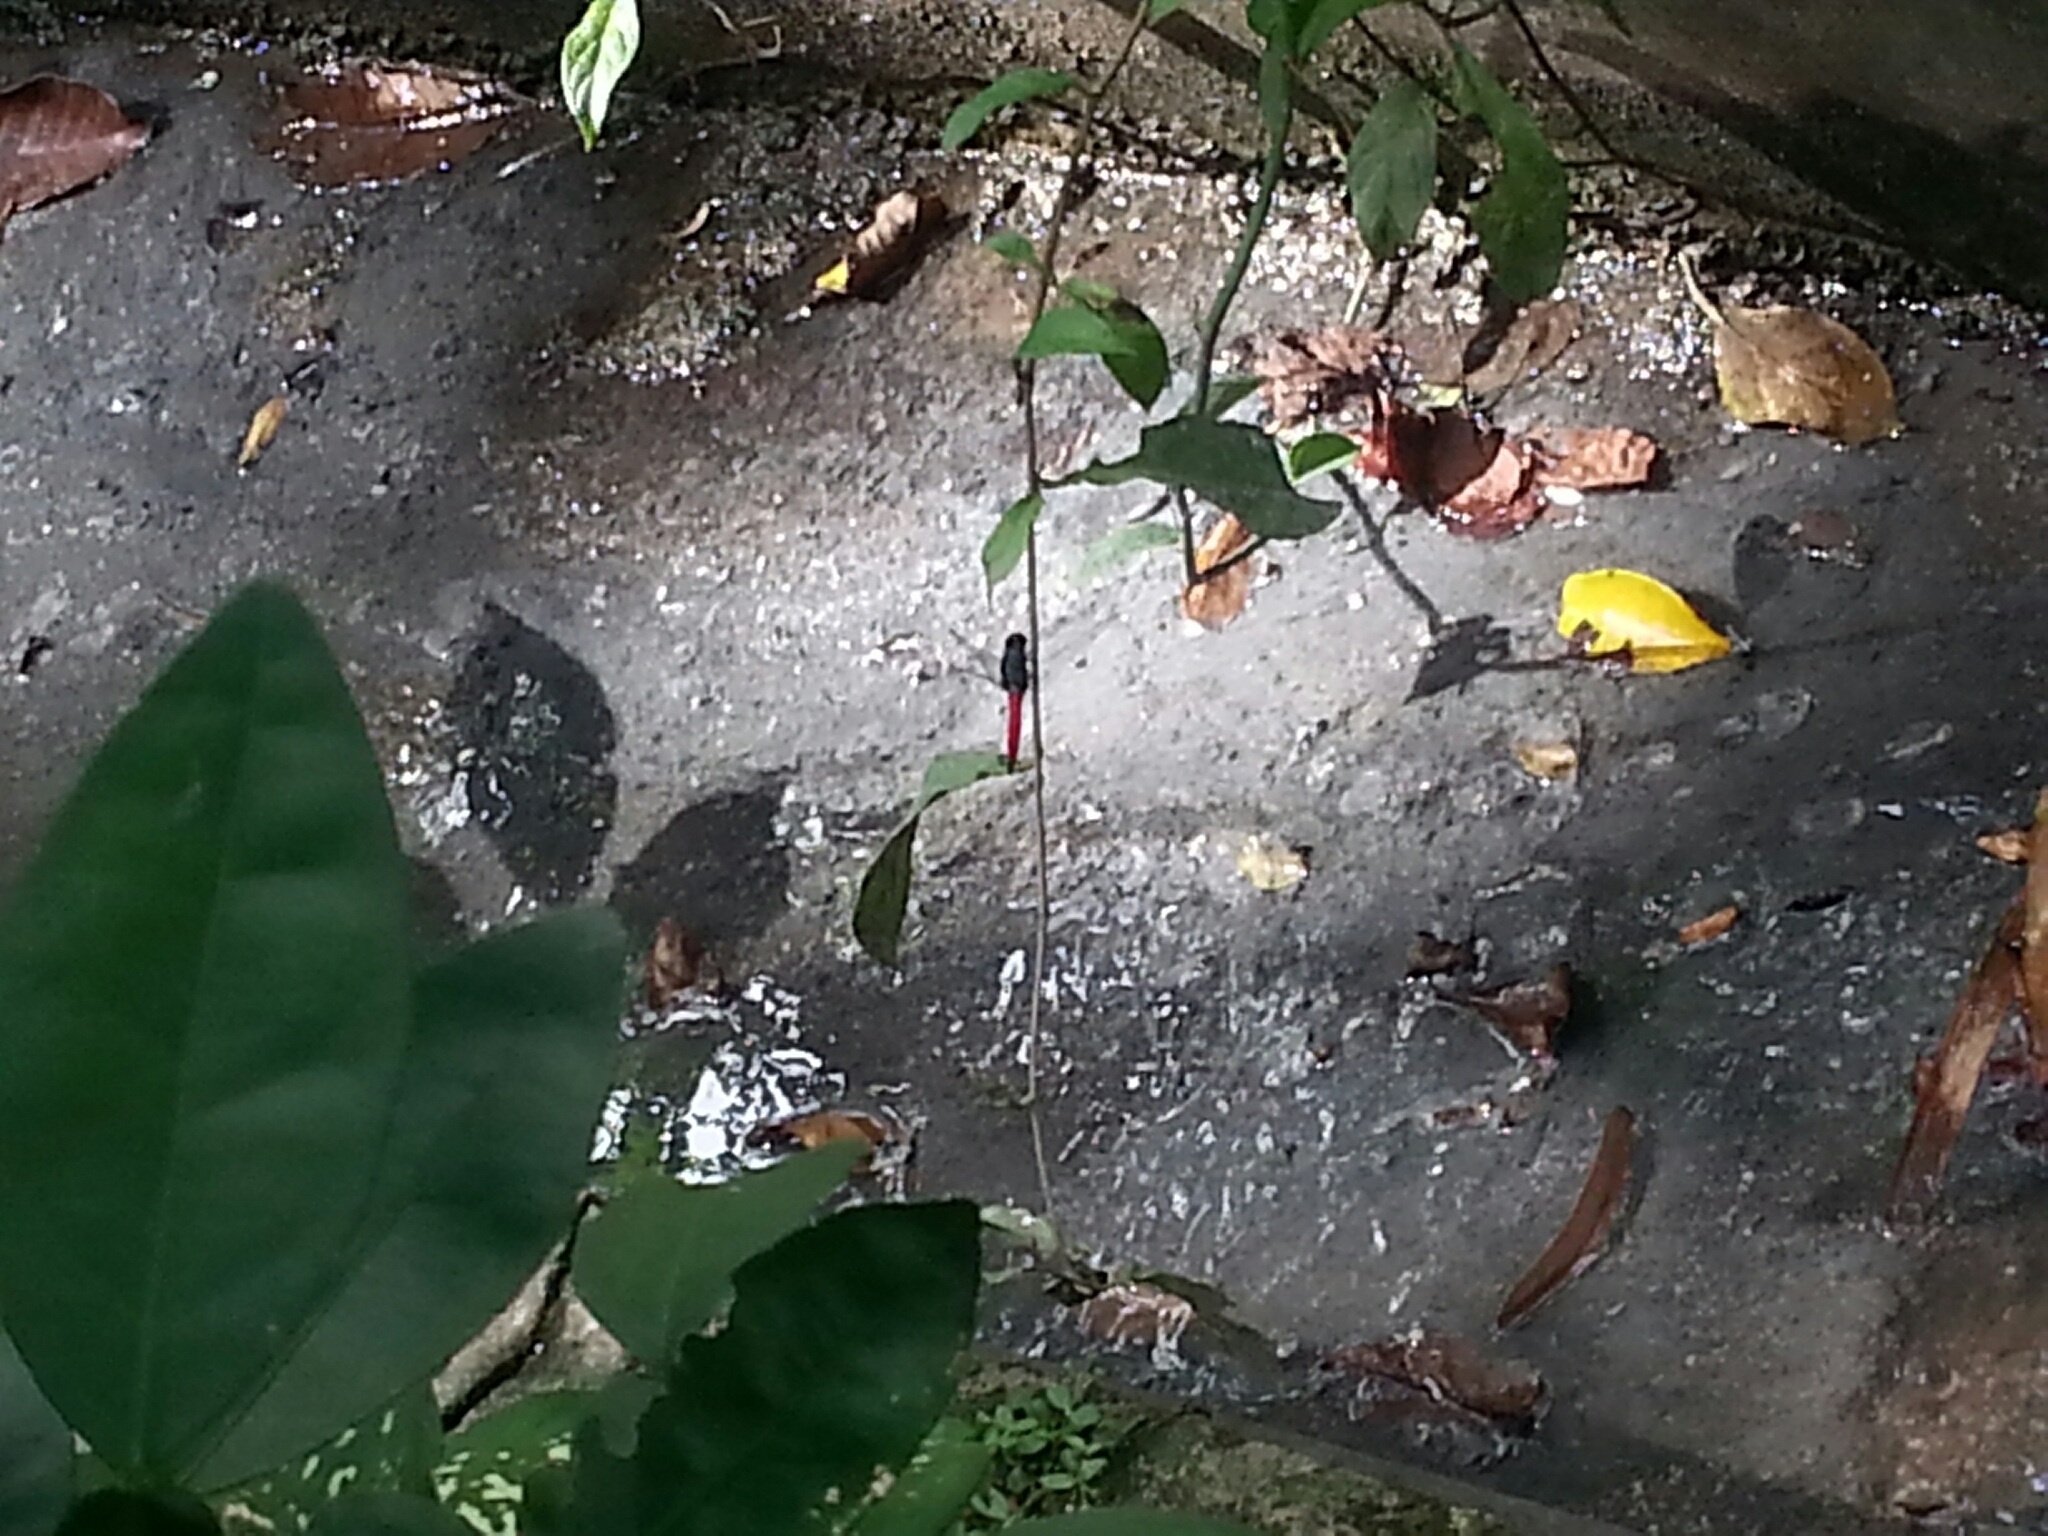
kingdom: Animalia
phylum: Arthropoda
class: Insecta
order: Odonata
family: Libellulidae
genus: Orthetrum
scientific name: Orthetrum pruinosum
